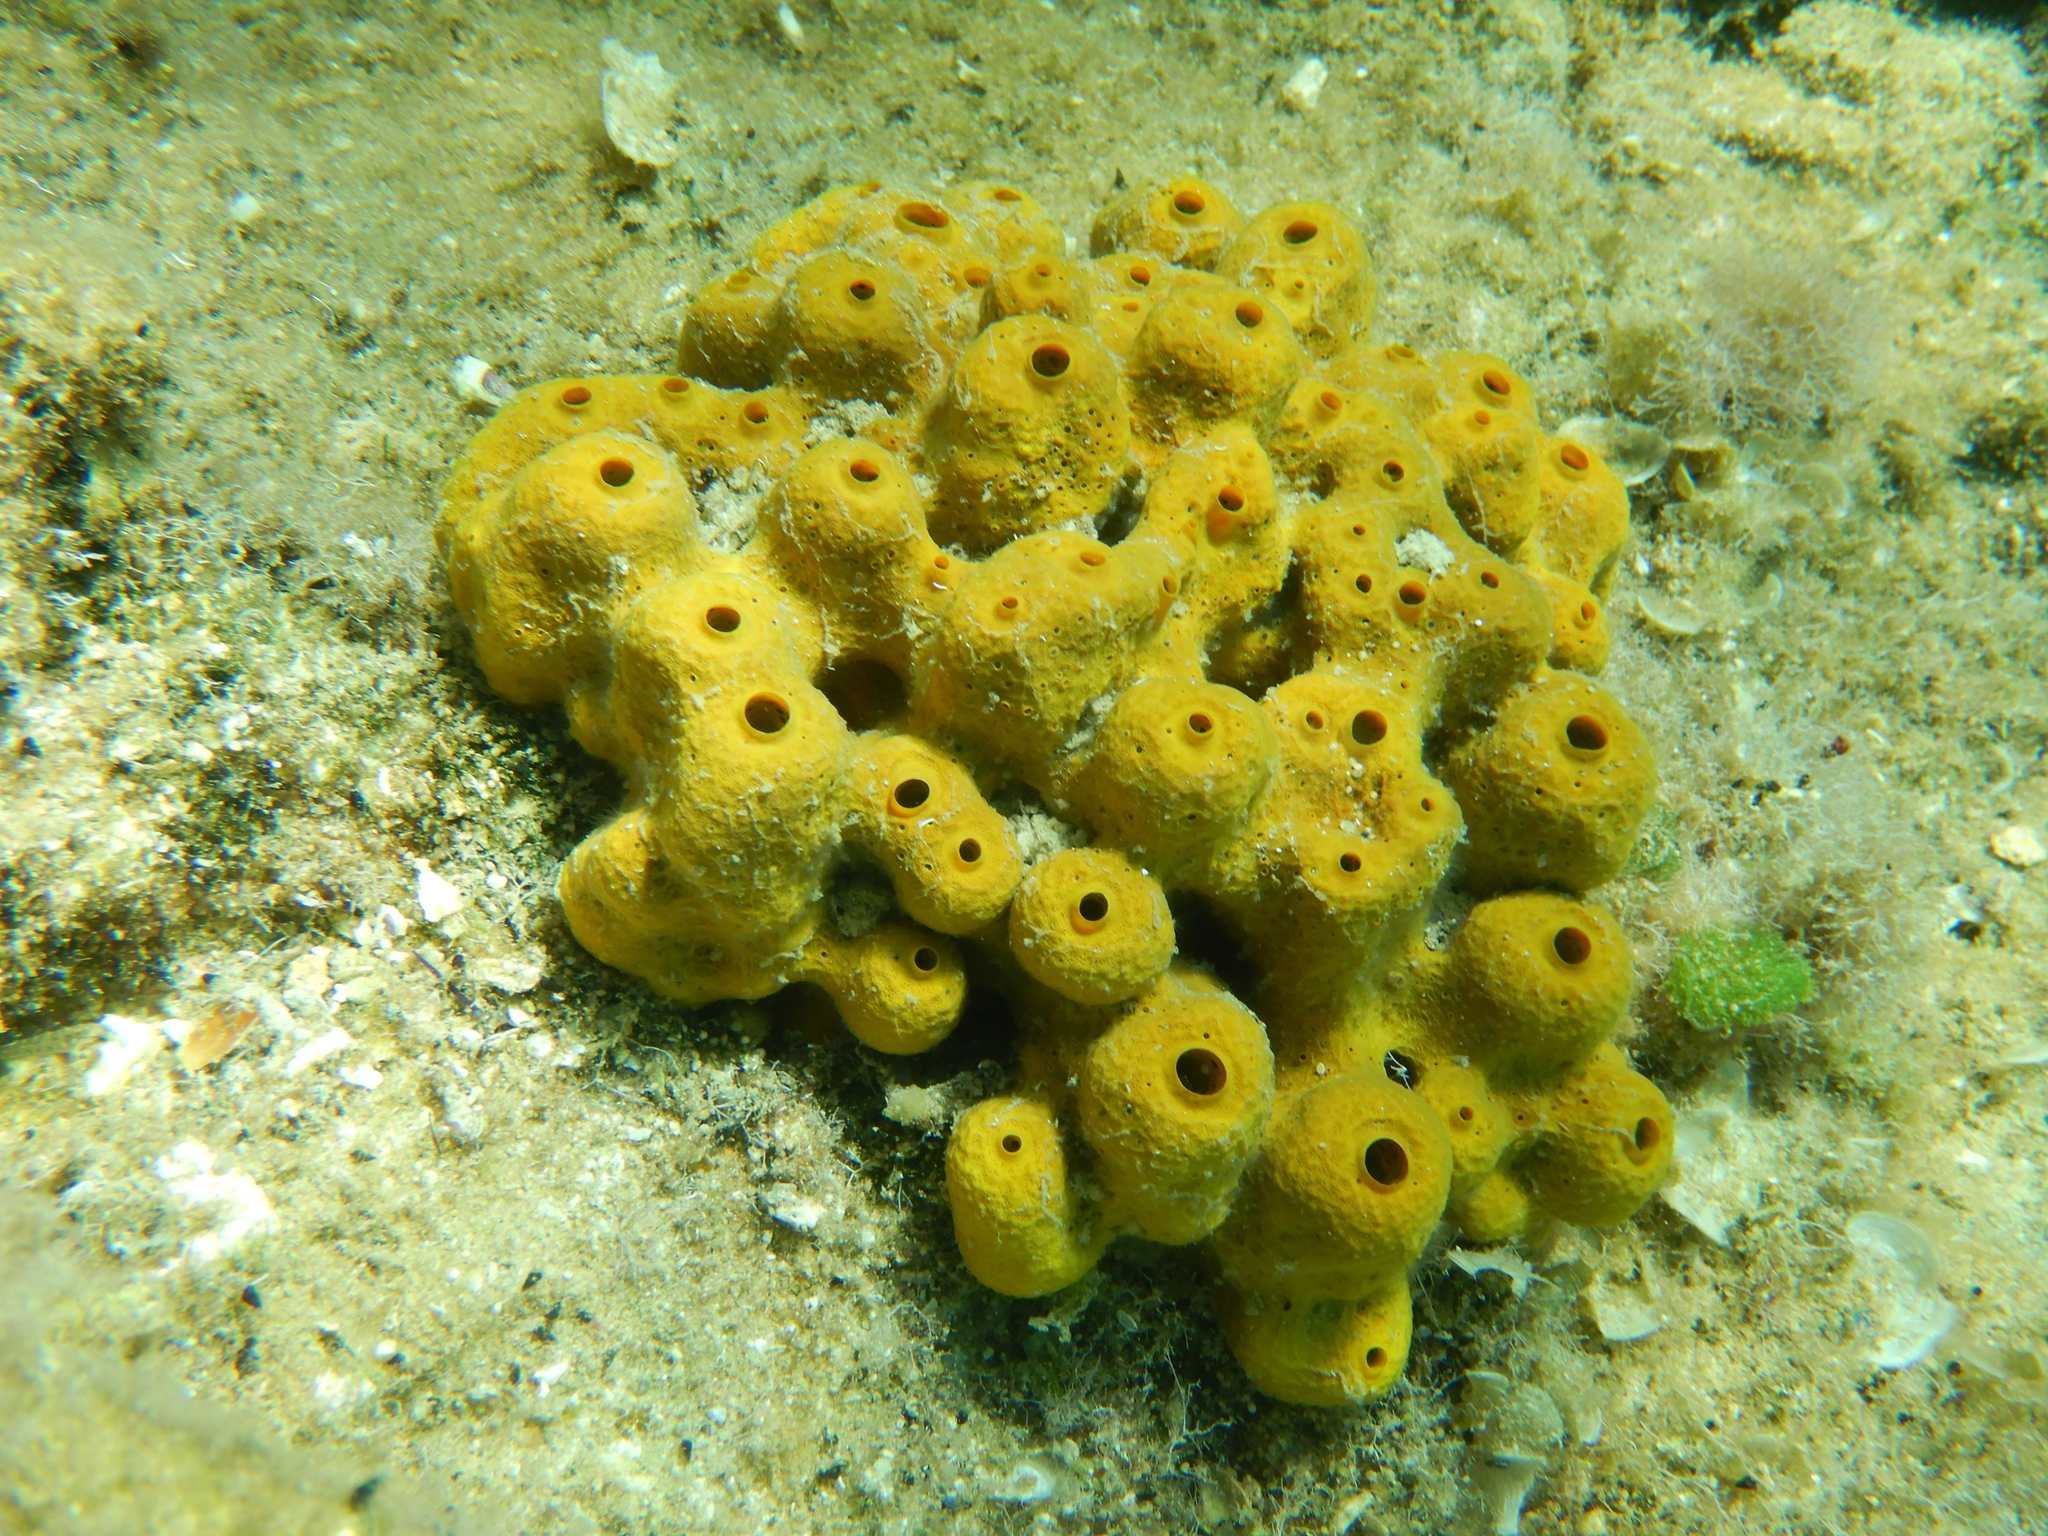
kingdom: Animalia
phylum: Porifera
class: Demospongiae
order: Verongiida
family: Aplysinidae
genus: Aplysina
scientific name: Aplysina aerophoba
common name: Aureate sponge
